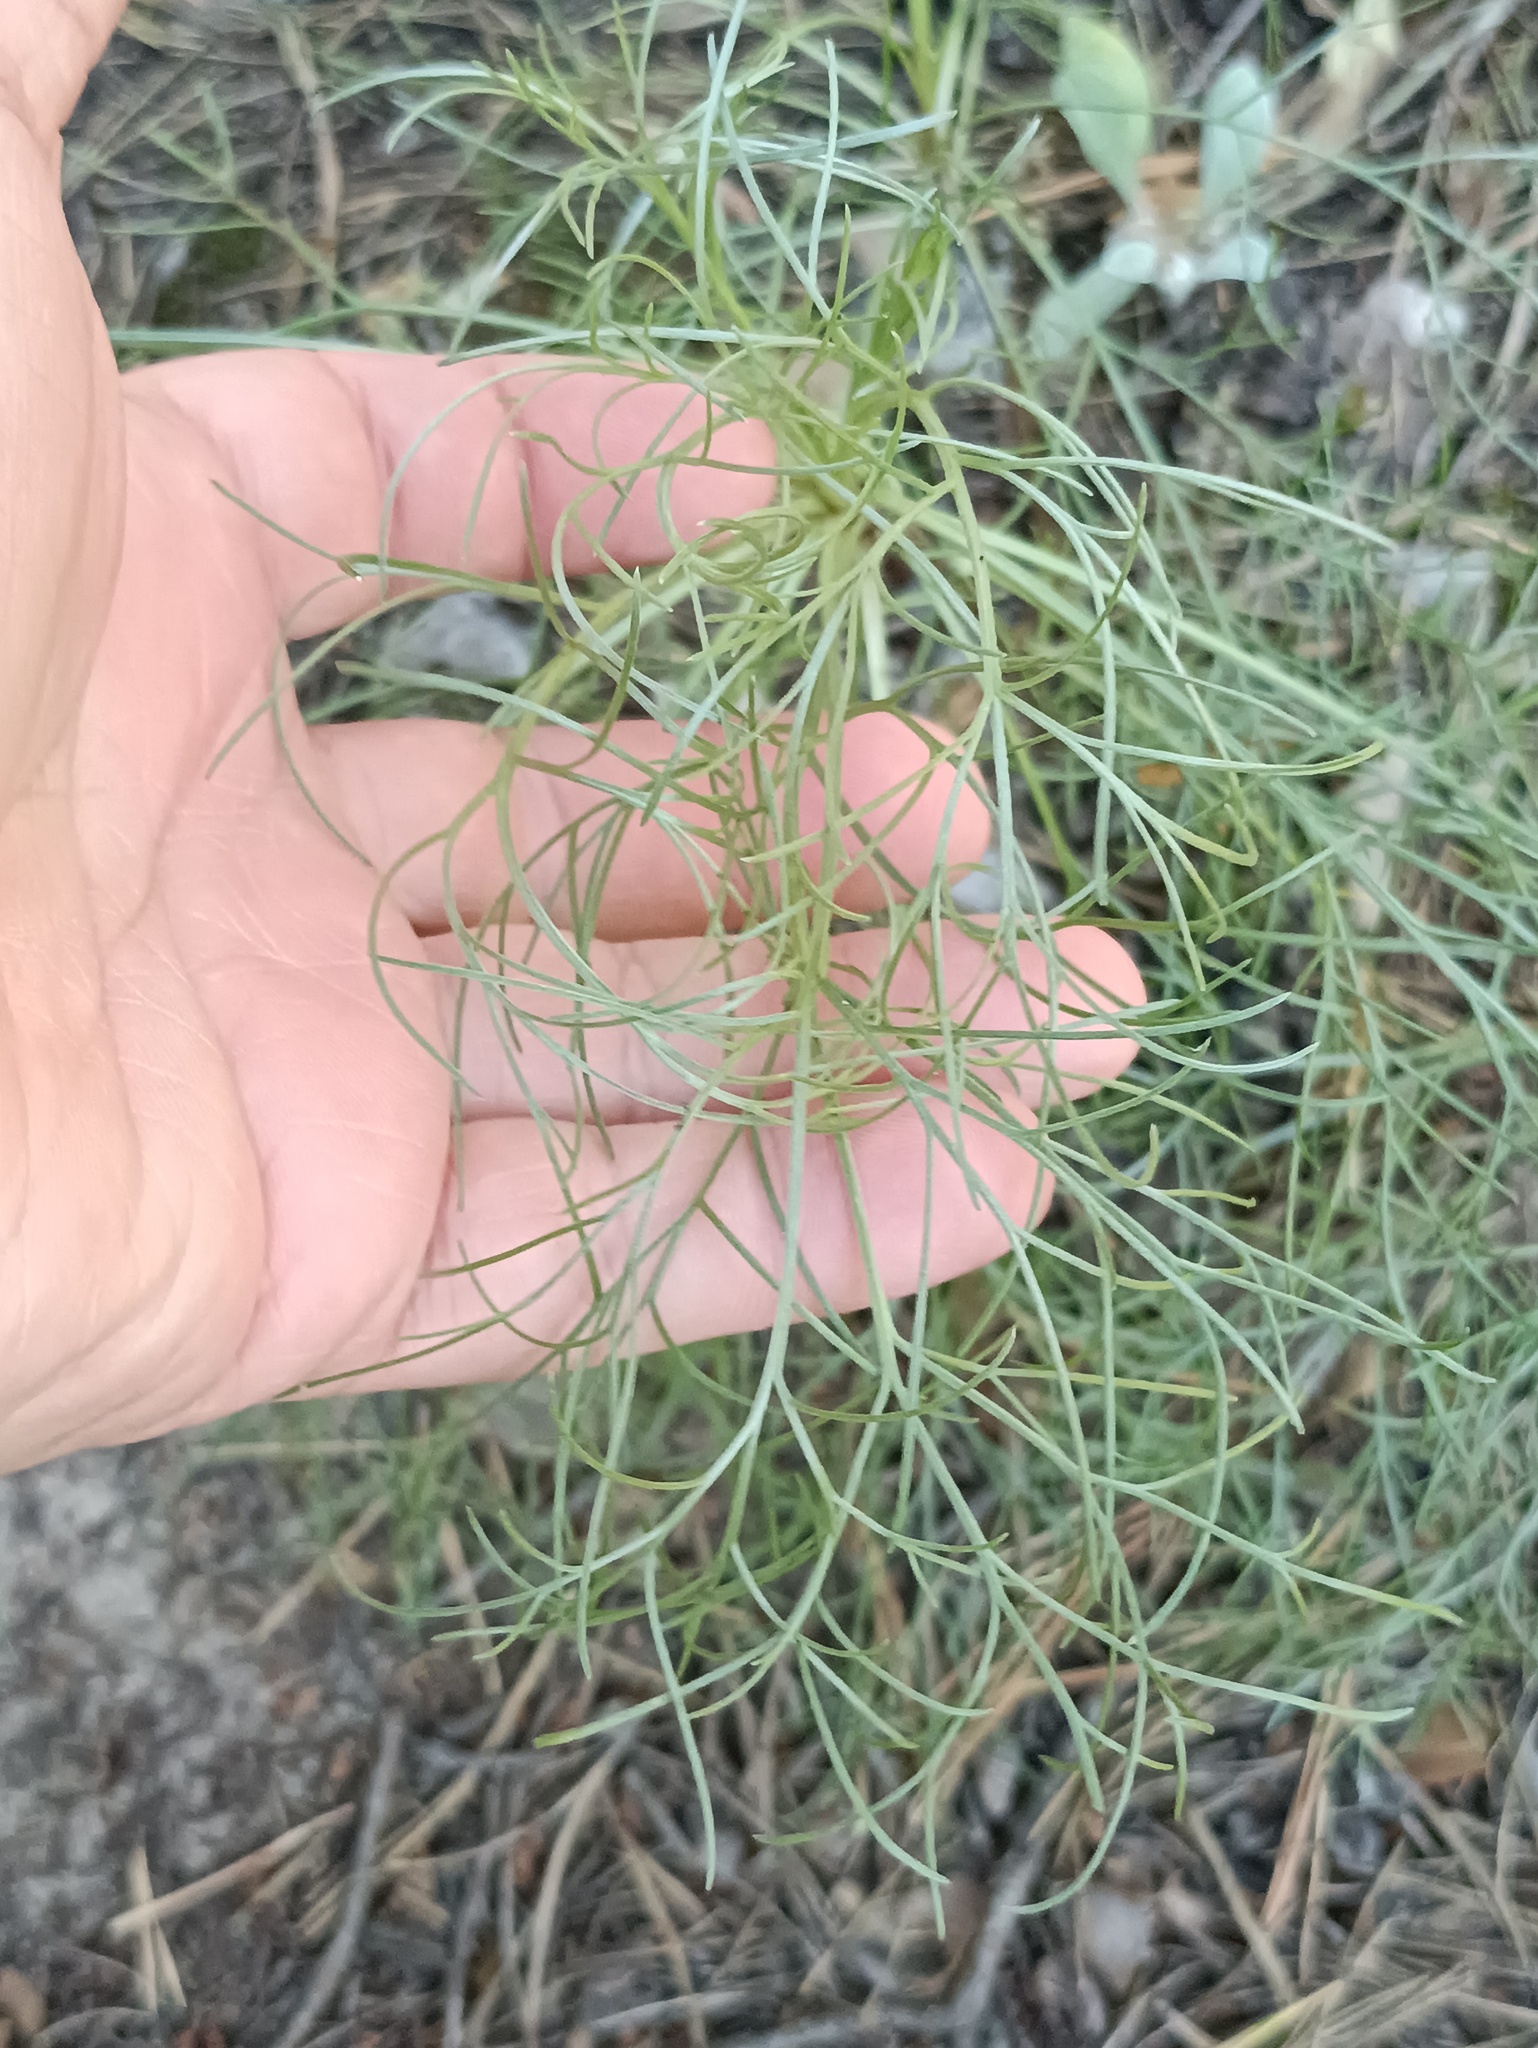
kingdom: Plantae
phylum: Tracheophyta
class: Magnoliopsida
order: Asterales
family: Asteraceae
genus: Artemisia
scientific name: Artemisia campestris
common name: Field wormwood
